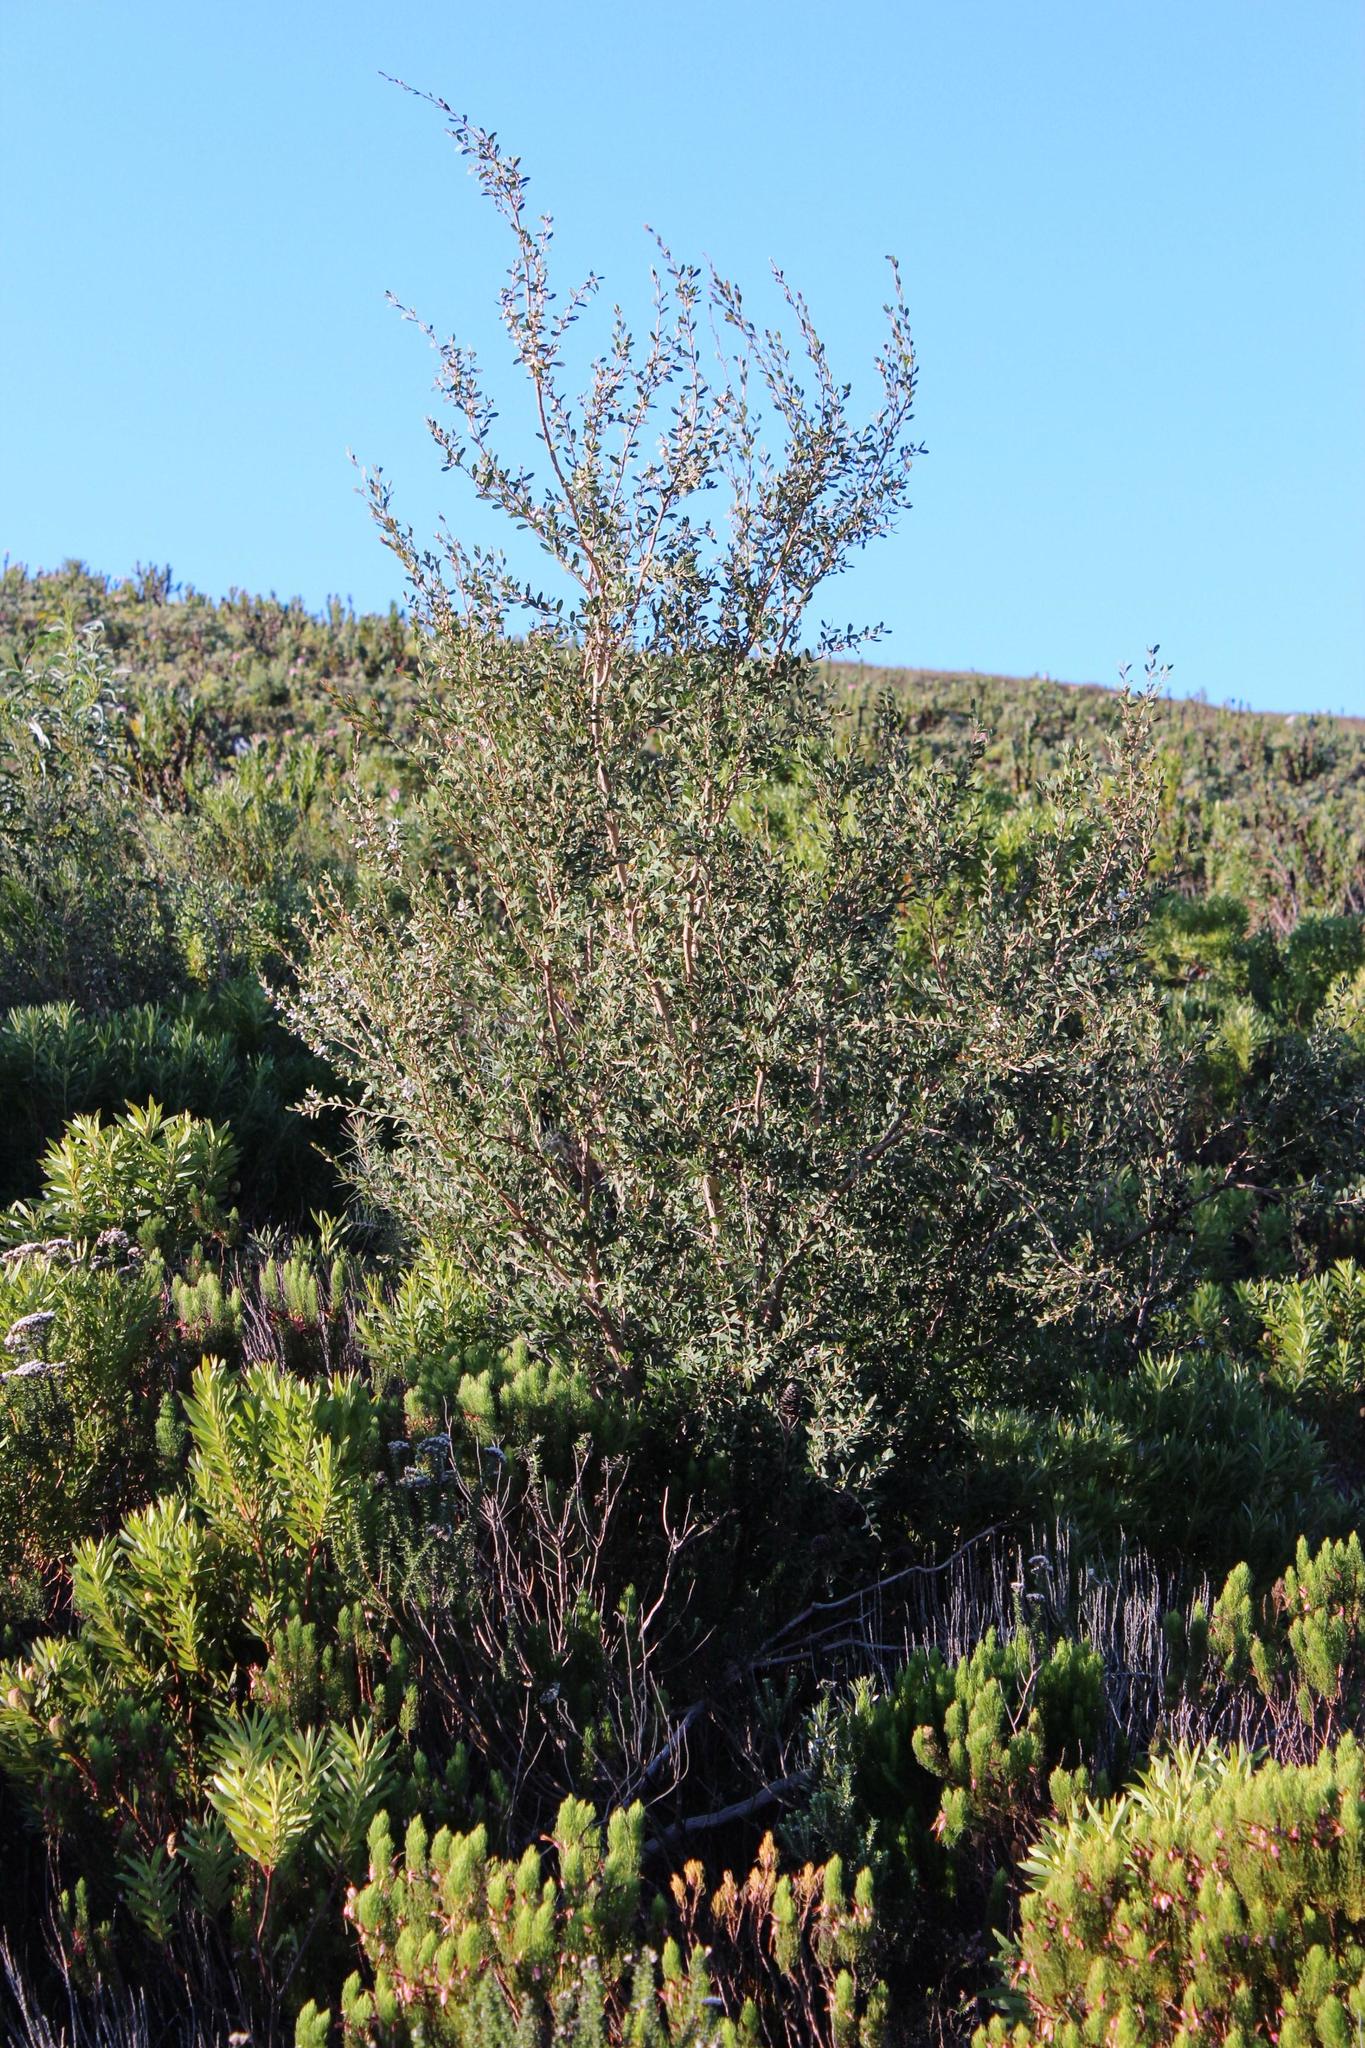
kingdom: Plantae
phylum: Tracheophyta
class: Magnoliopsida
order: Myrtales
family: Myrtaceae
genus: Leptospermum
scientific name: Leptospermum laevigatum
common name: Australian teatree
